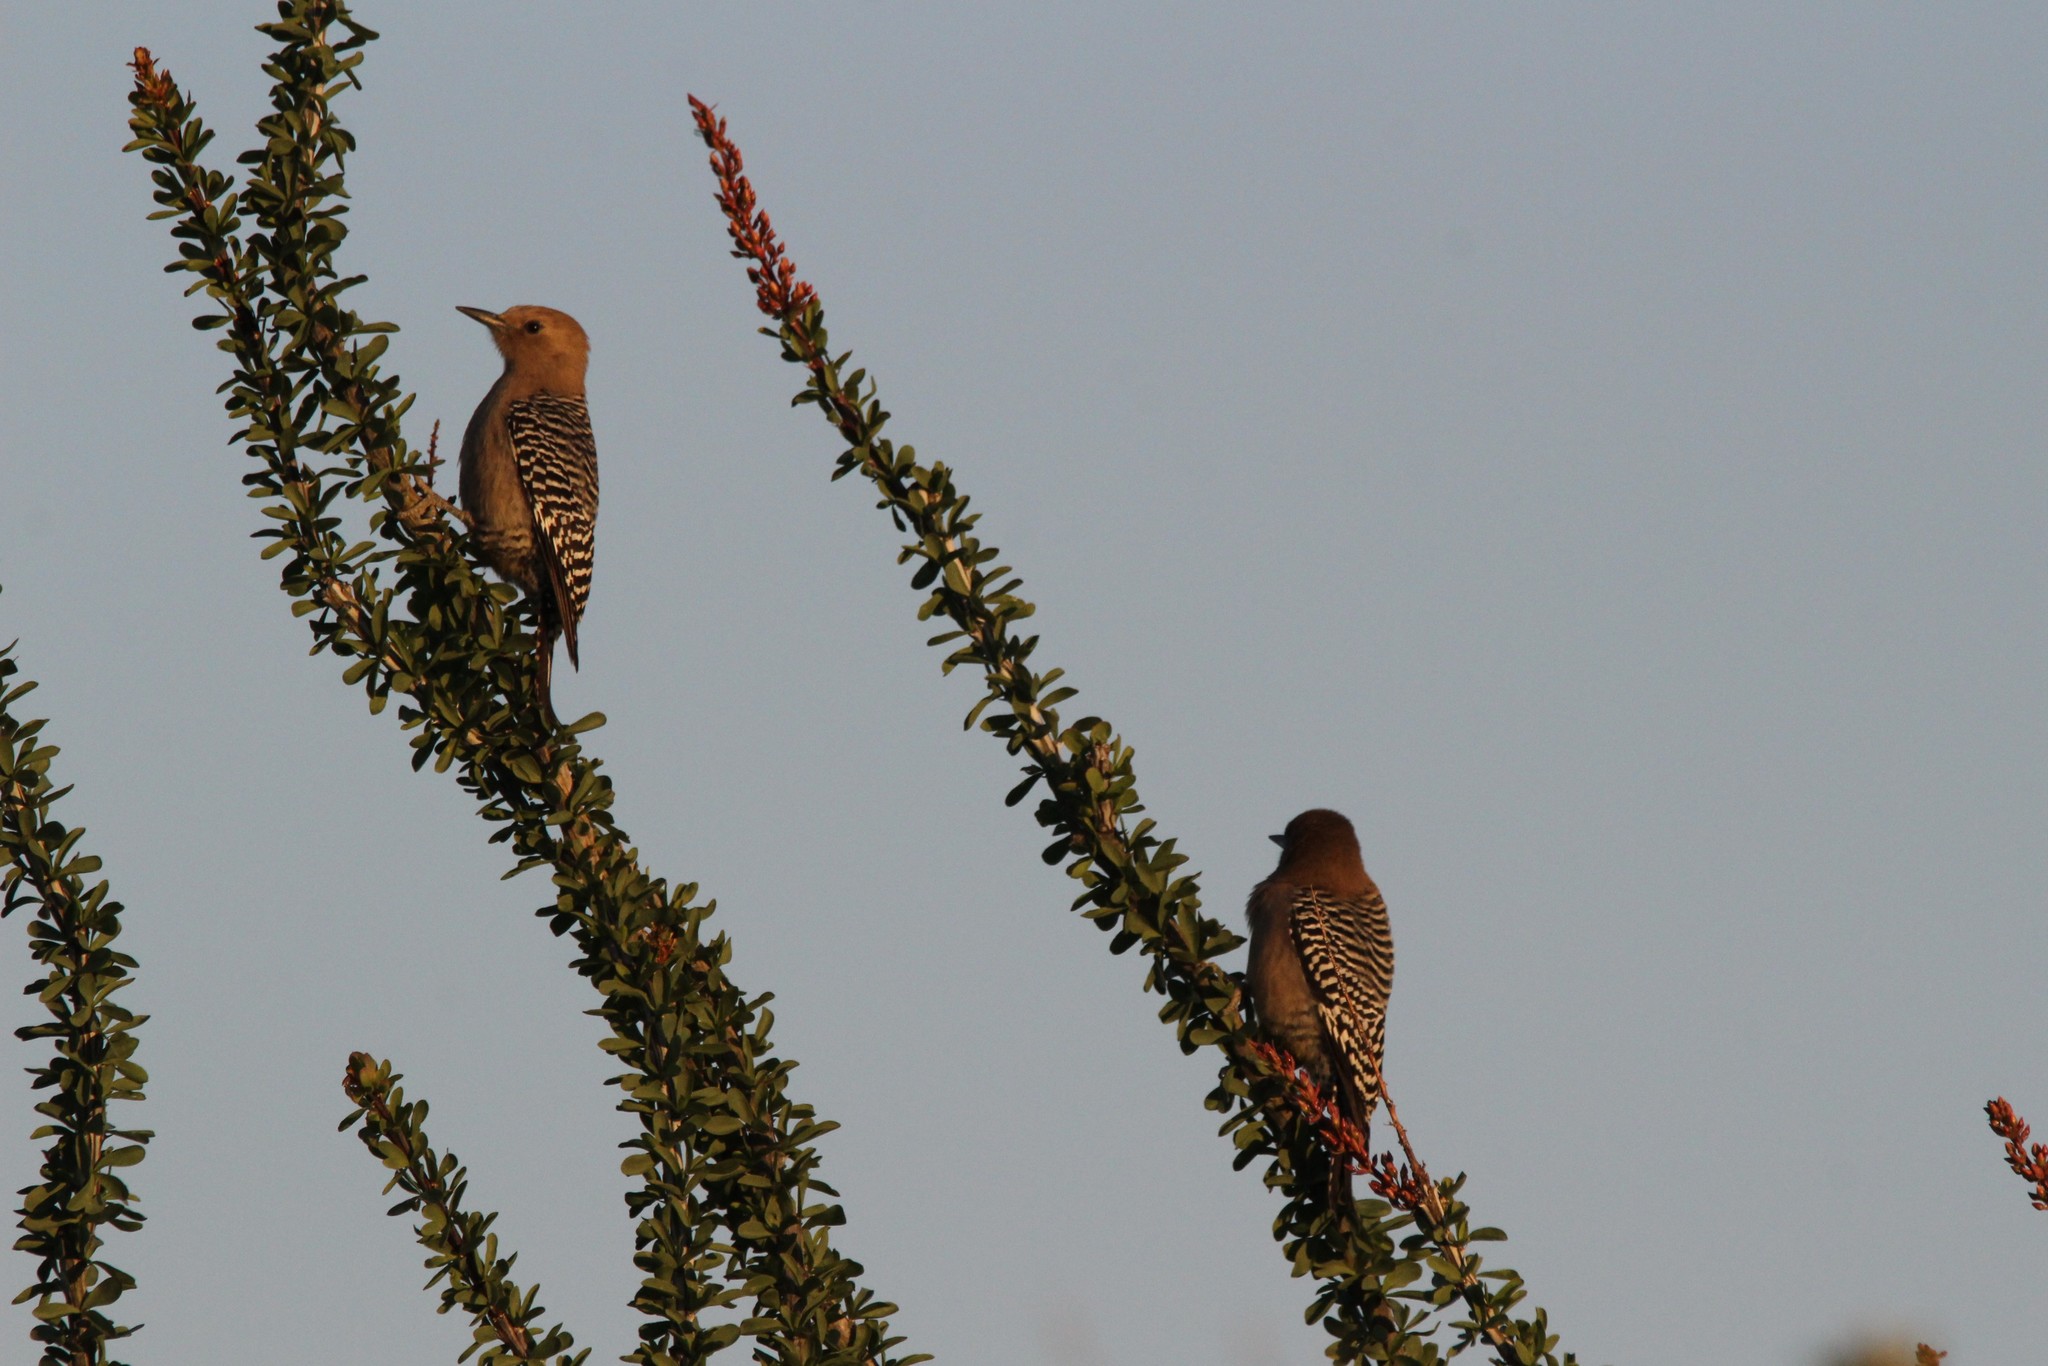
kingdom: Animalia
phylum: Chordata
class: Aves
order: Piciformes
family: Picidae
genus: Melanerpes
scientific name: Melanerpes uropygialis
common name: Gila woodpecker
